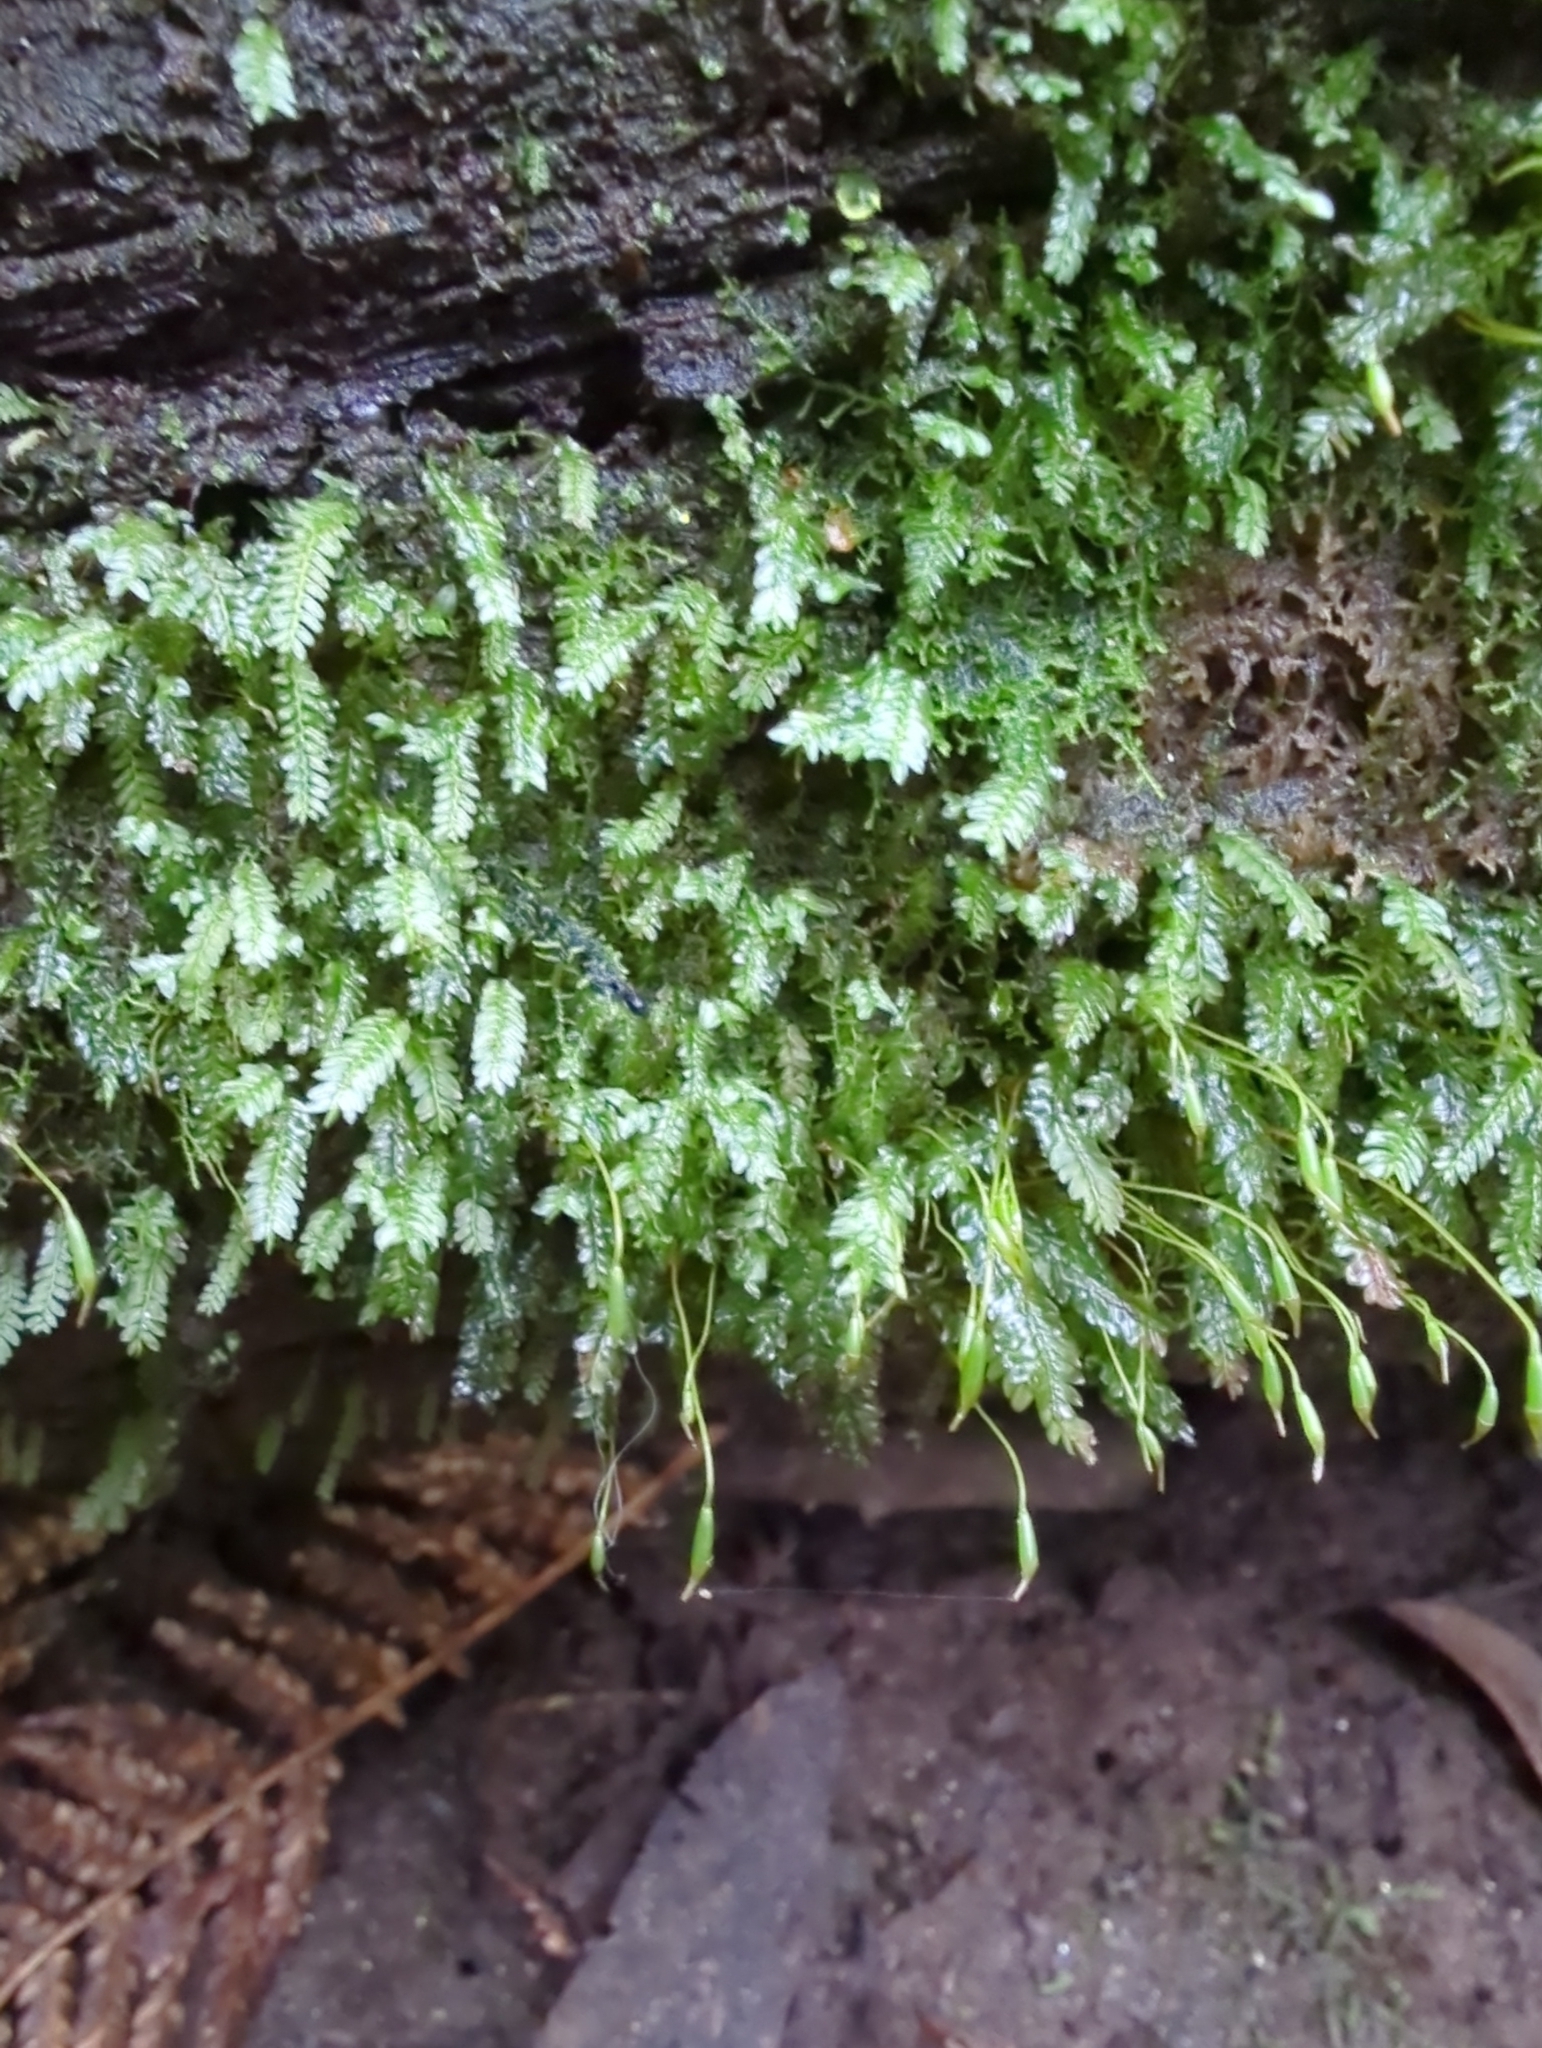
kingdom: Plantae
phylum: Bryophyta
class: Bryopsida
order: Rhizogoniales
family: Rhizogoniaceae
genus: Rhizogonium
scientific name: Rhizogonium distichum
